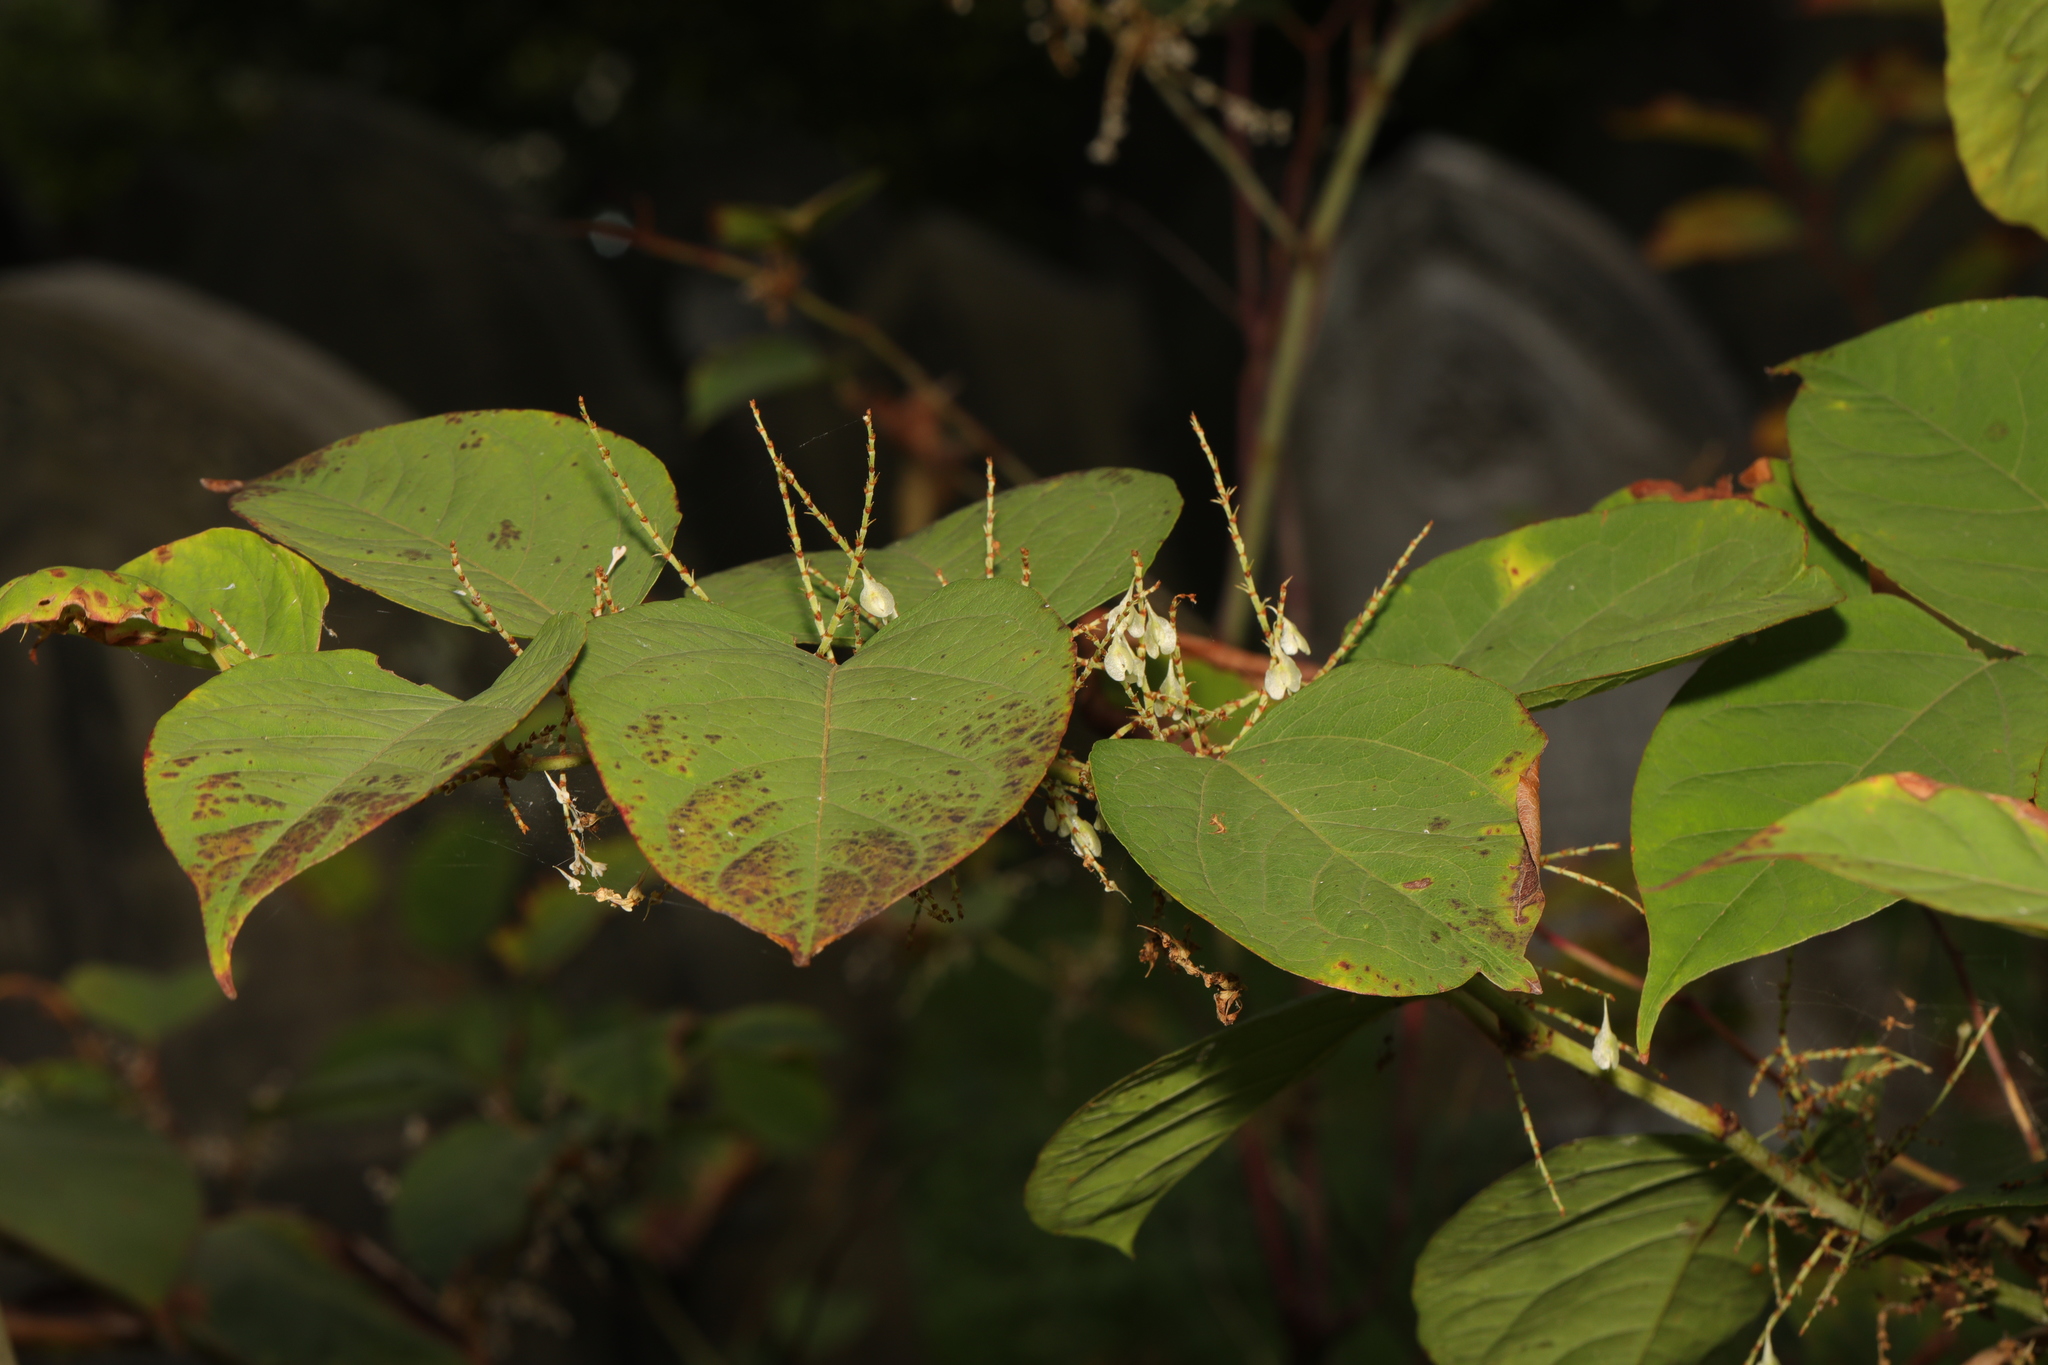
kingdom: Plantae
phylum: Tracheophyta
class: Magnoliopsida
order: Caryophyllales
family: Polygonaceae
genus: Reynoutria
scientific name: Reynoutria japonica
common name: Japanese knotweed
